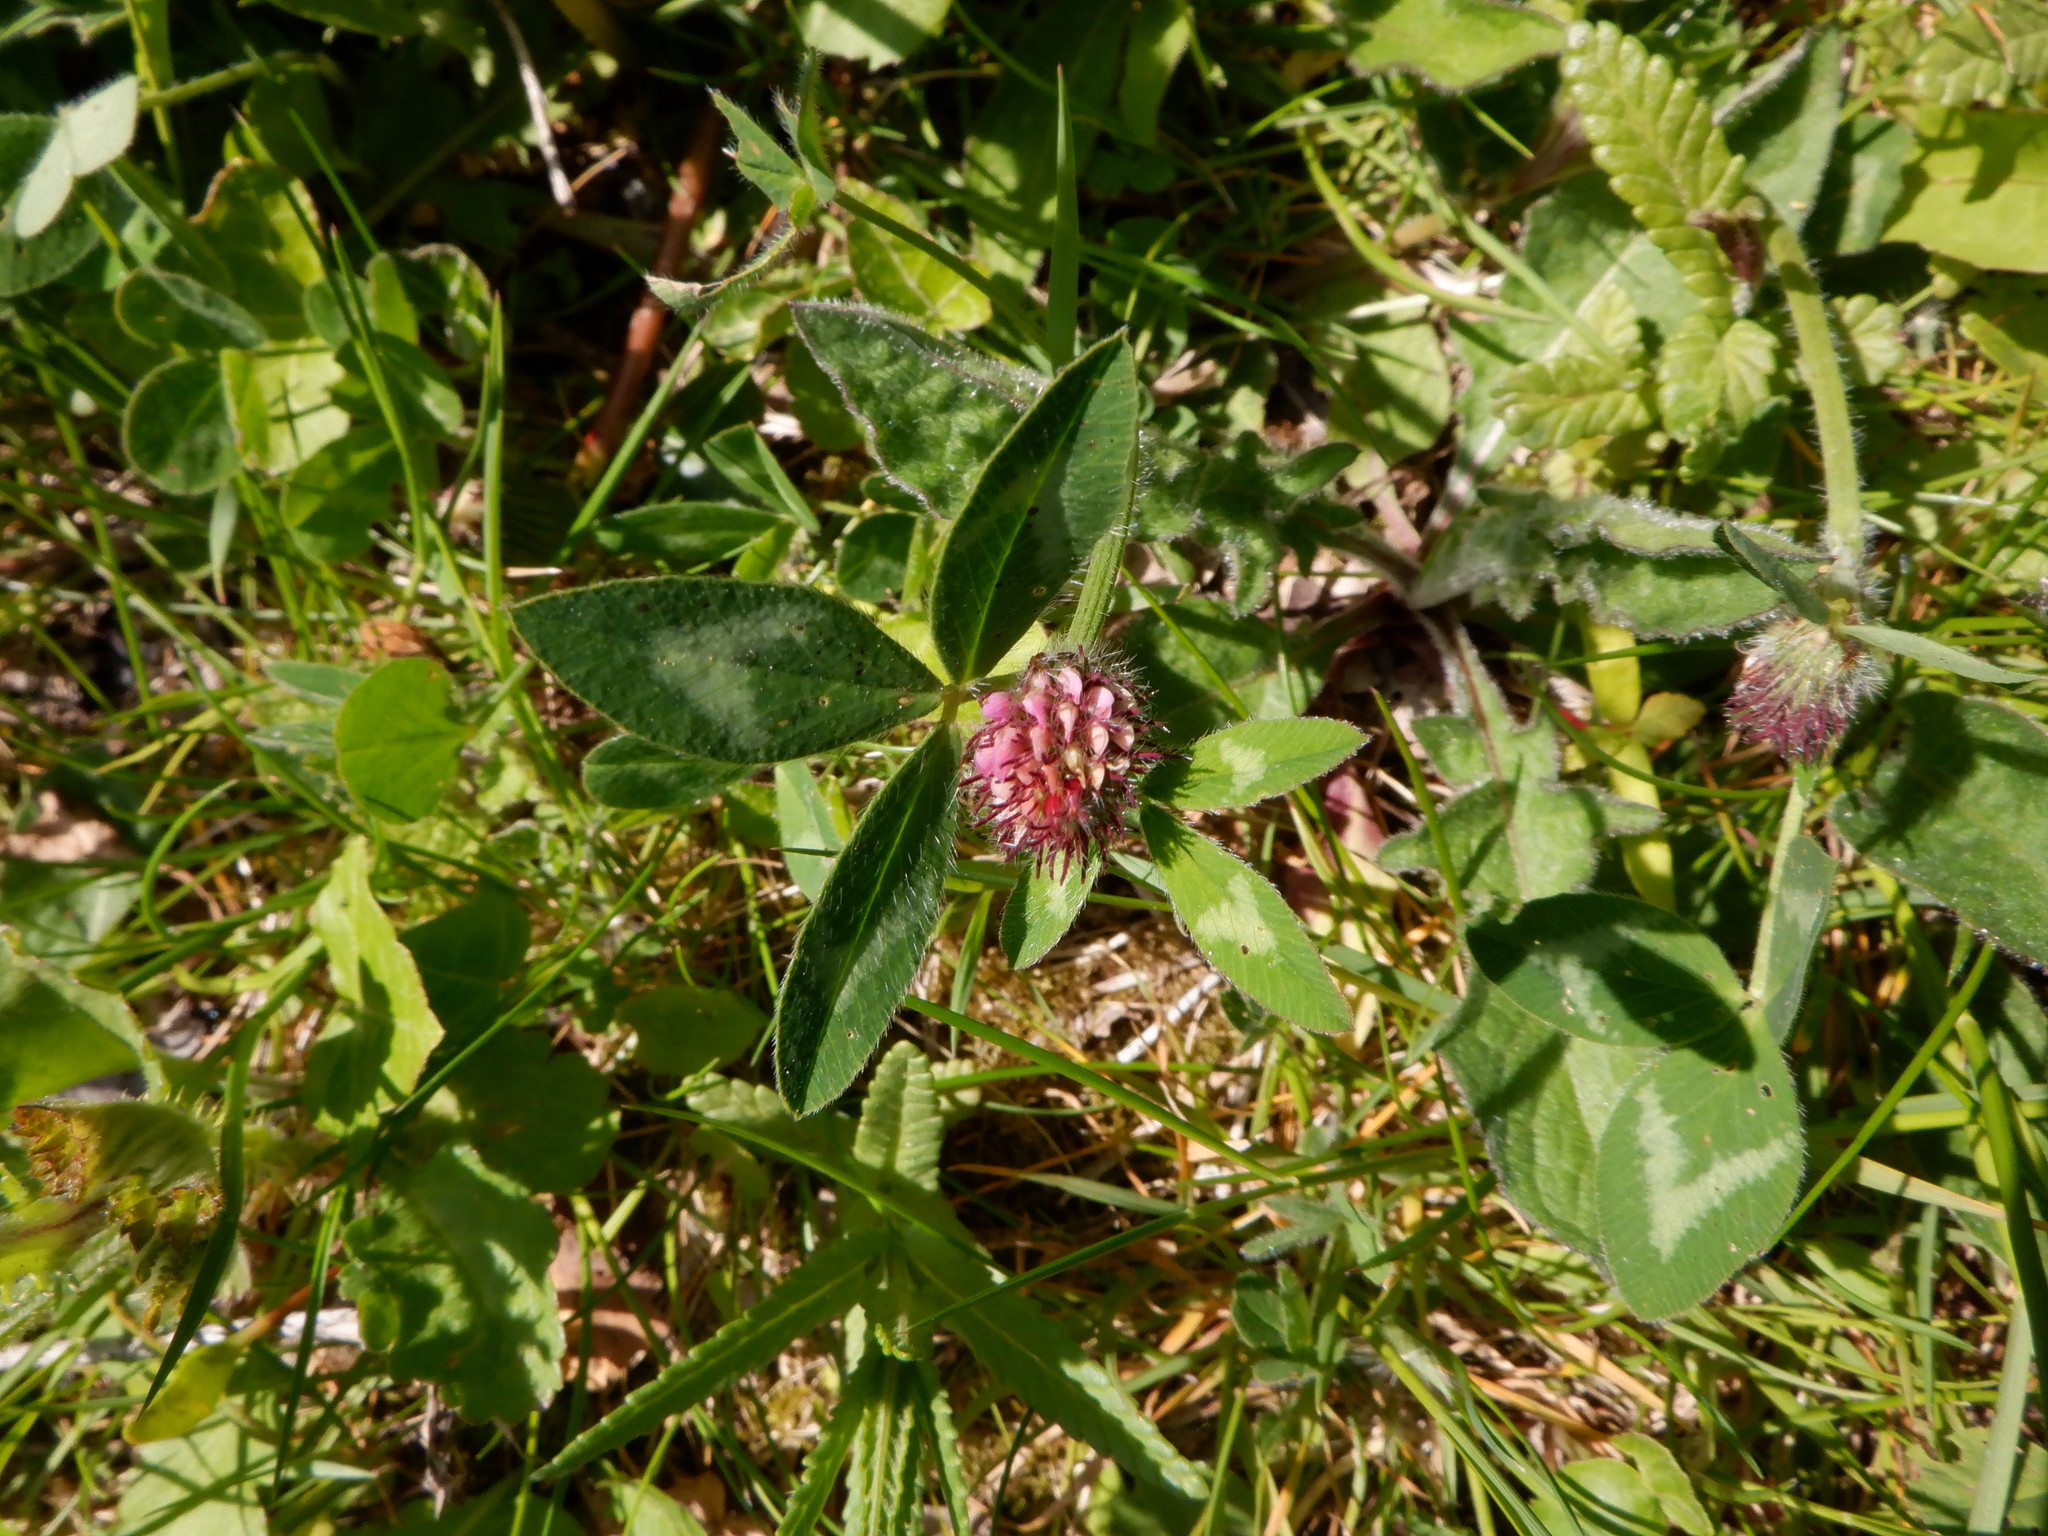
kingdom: Plantae
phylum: Tracheophyta
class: Magnoliopsida
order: Fabales
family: Fabaceae
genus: Trifolium
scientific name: Trifolium pratense
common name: Red clover
